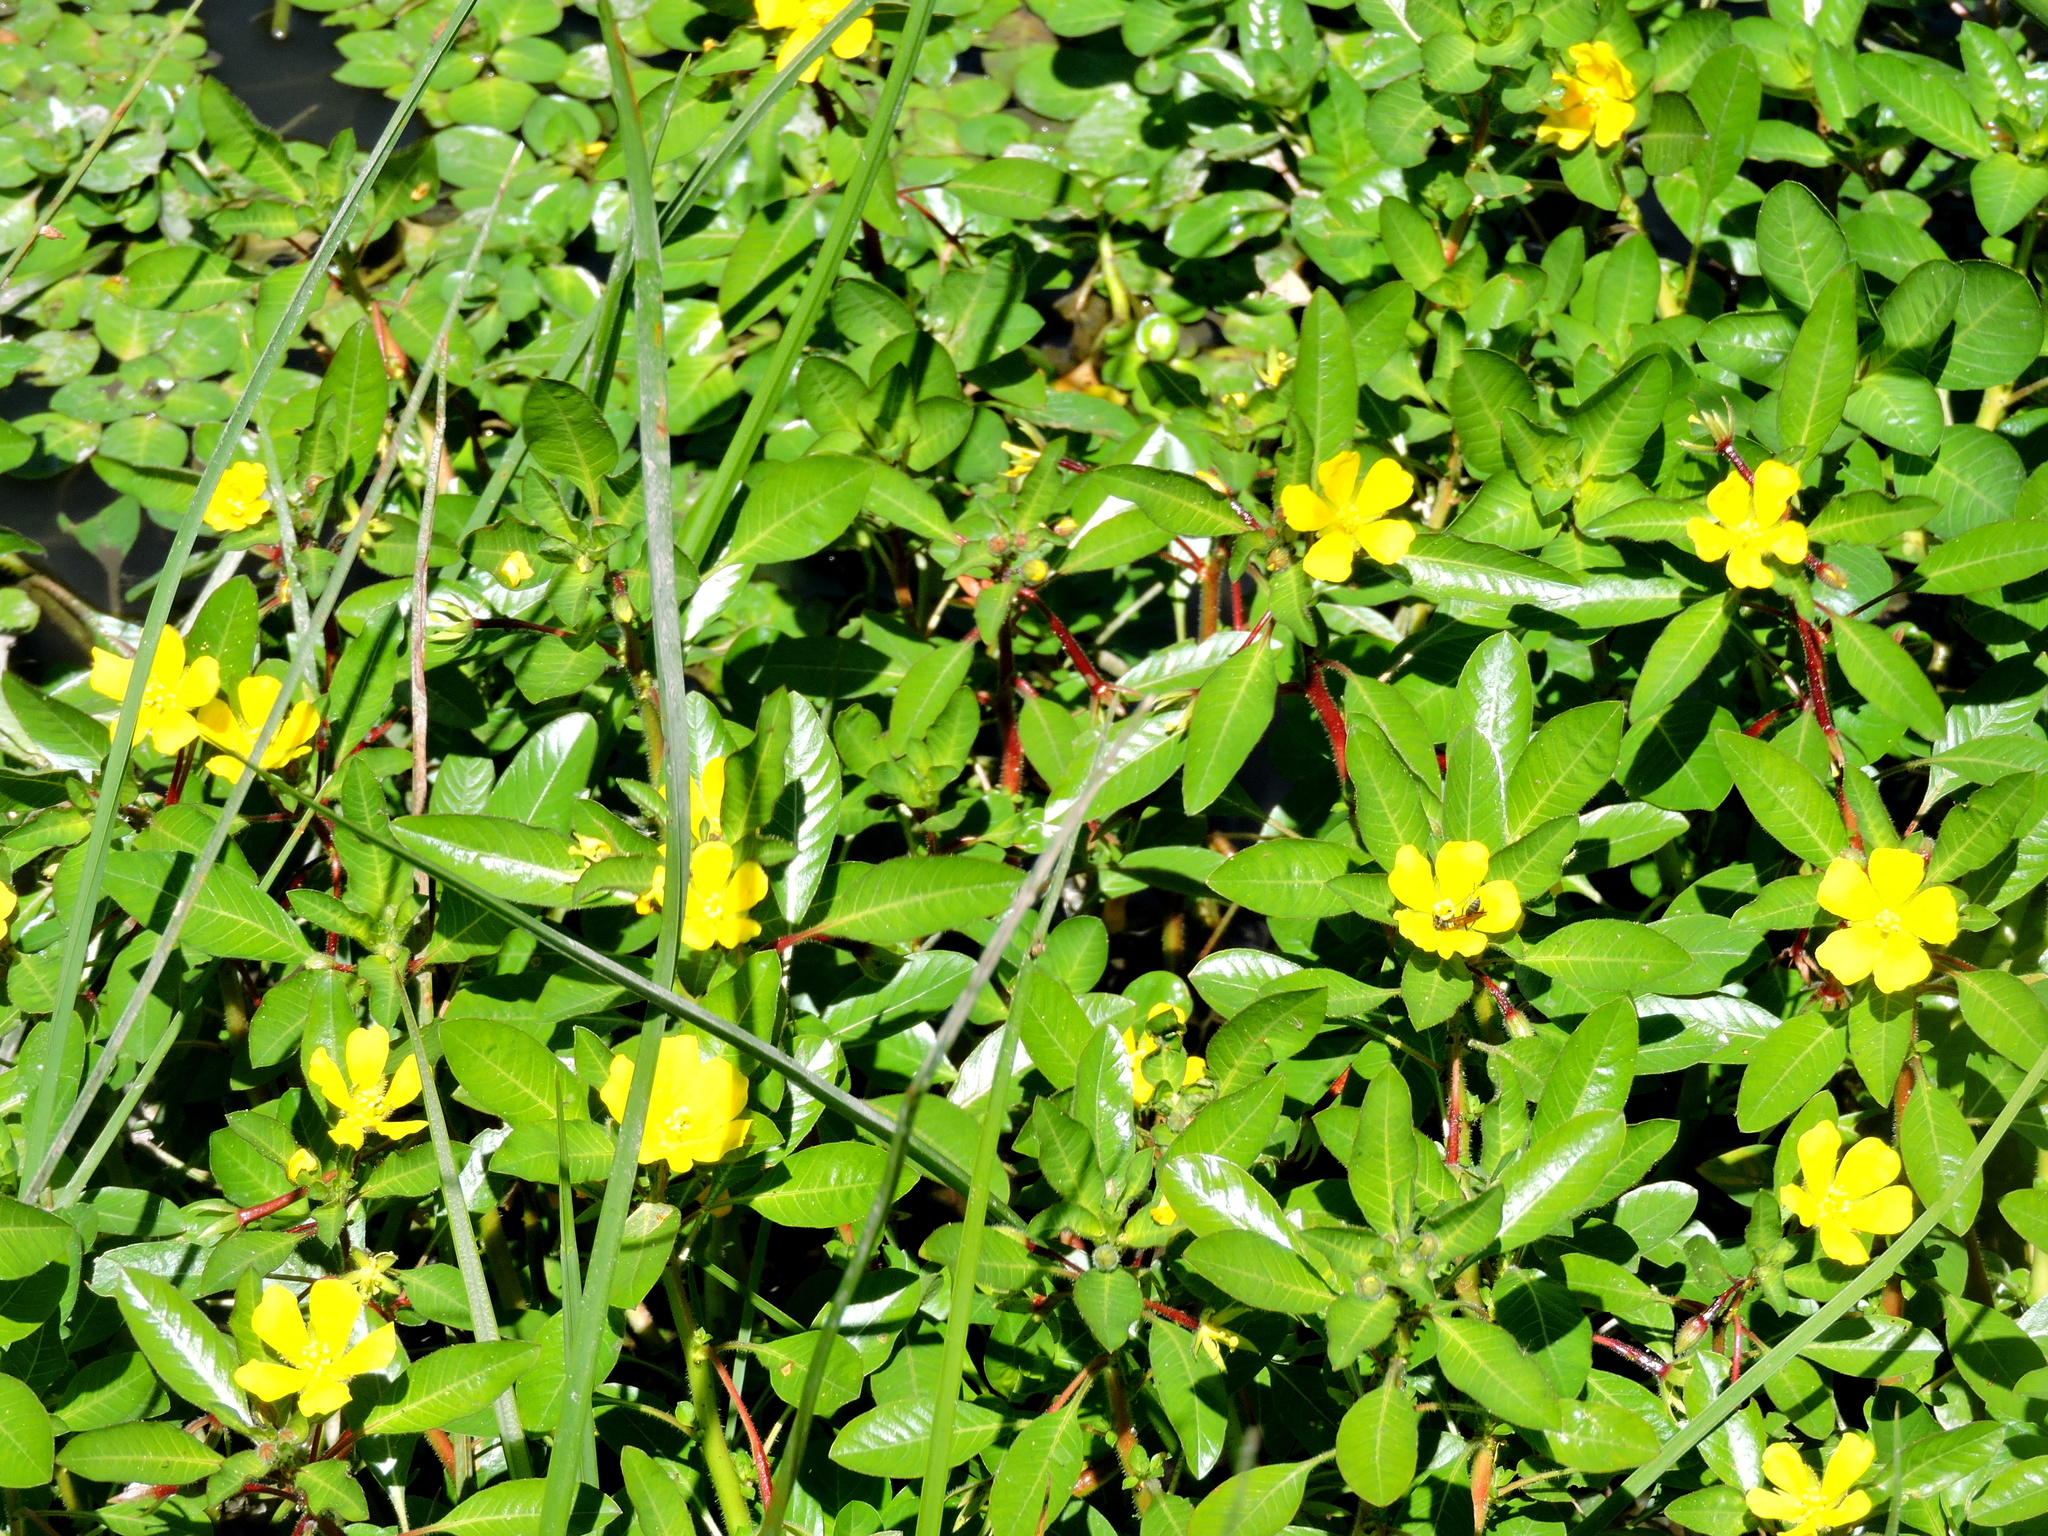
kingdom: Plantae
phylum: Tracheophyta
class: Magnoliopsida
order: Myrtales
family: Onagraceae
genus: Ludwigia
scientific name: Ludwigia peploides
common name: Floating primrose-willow
